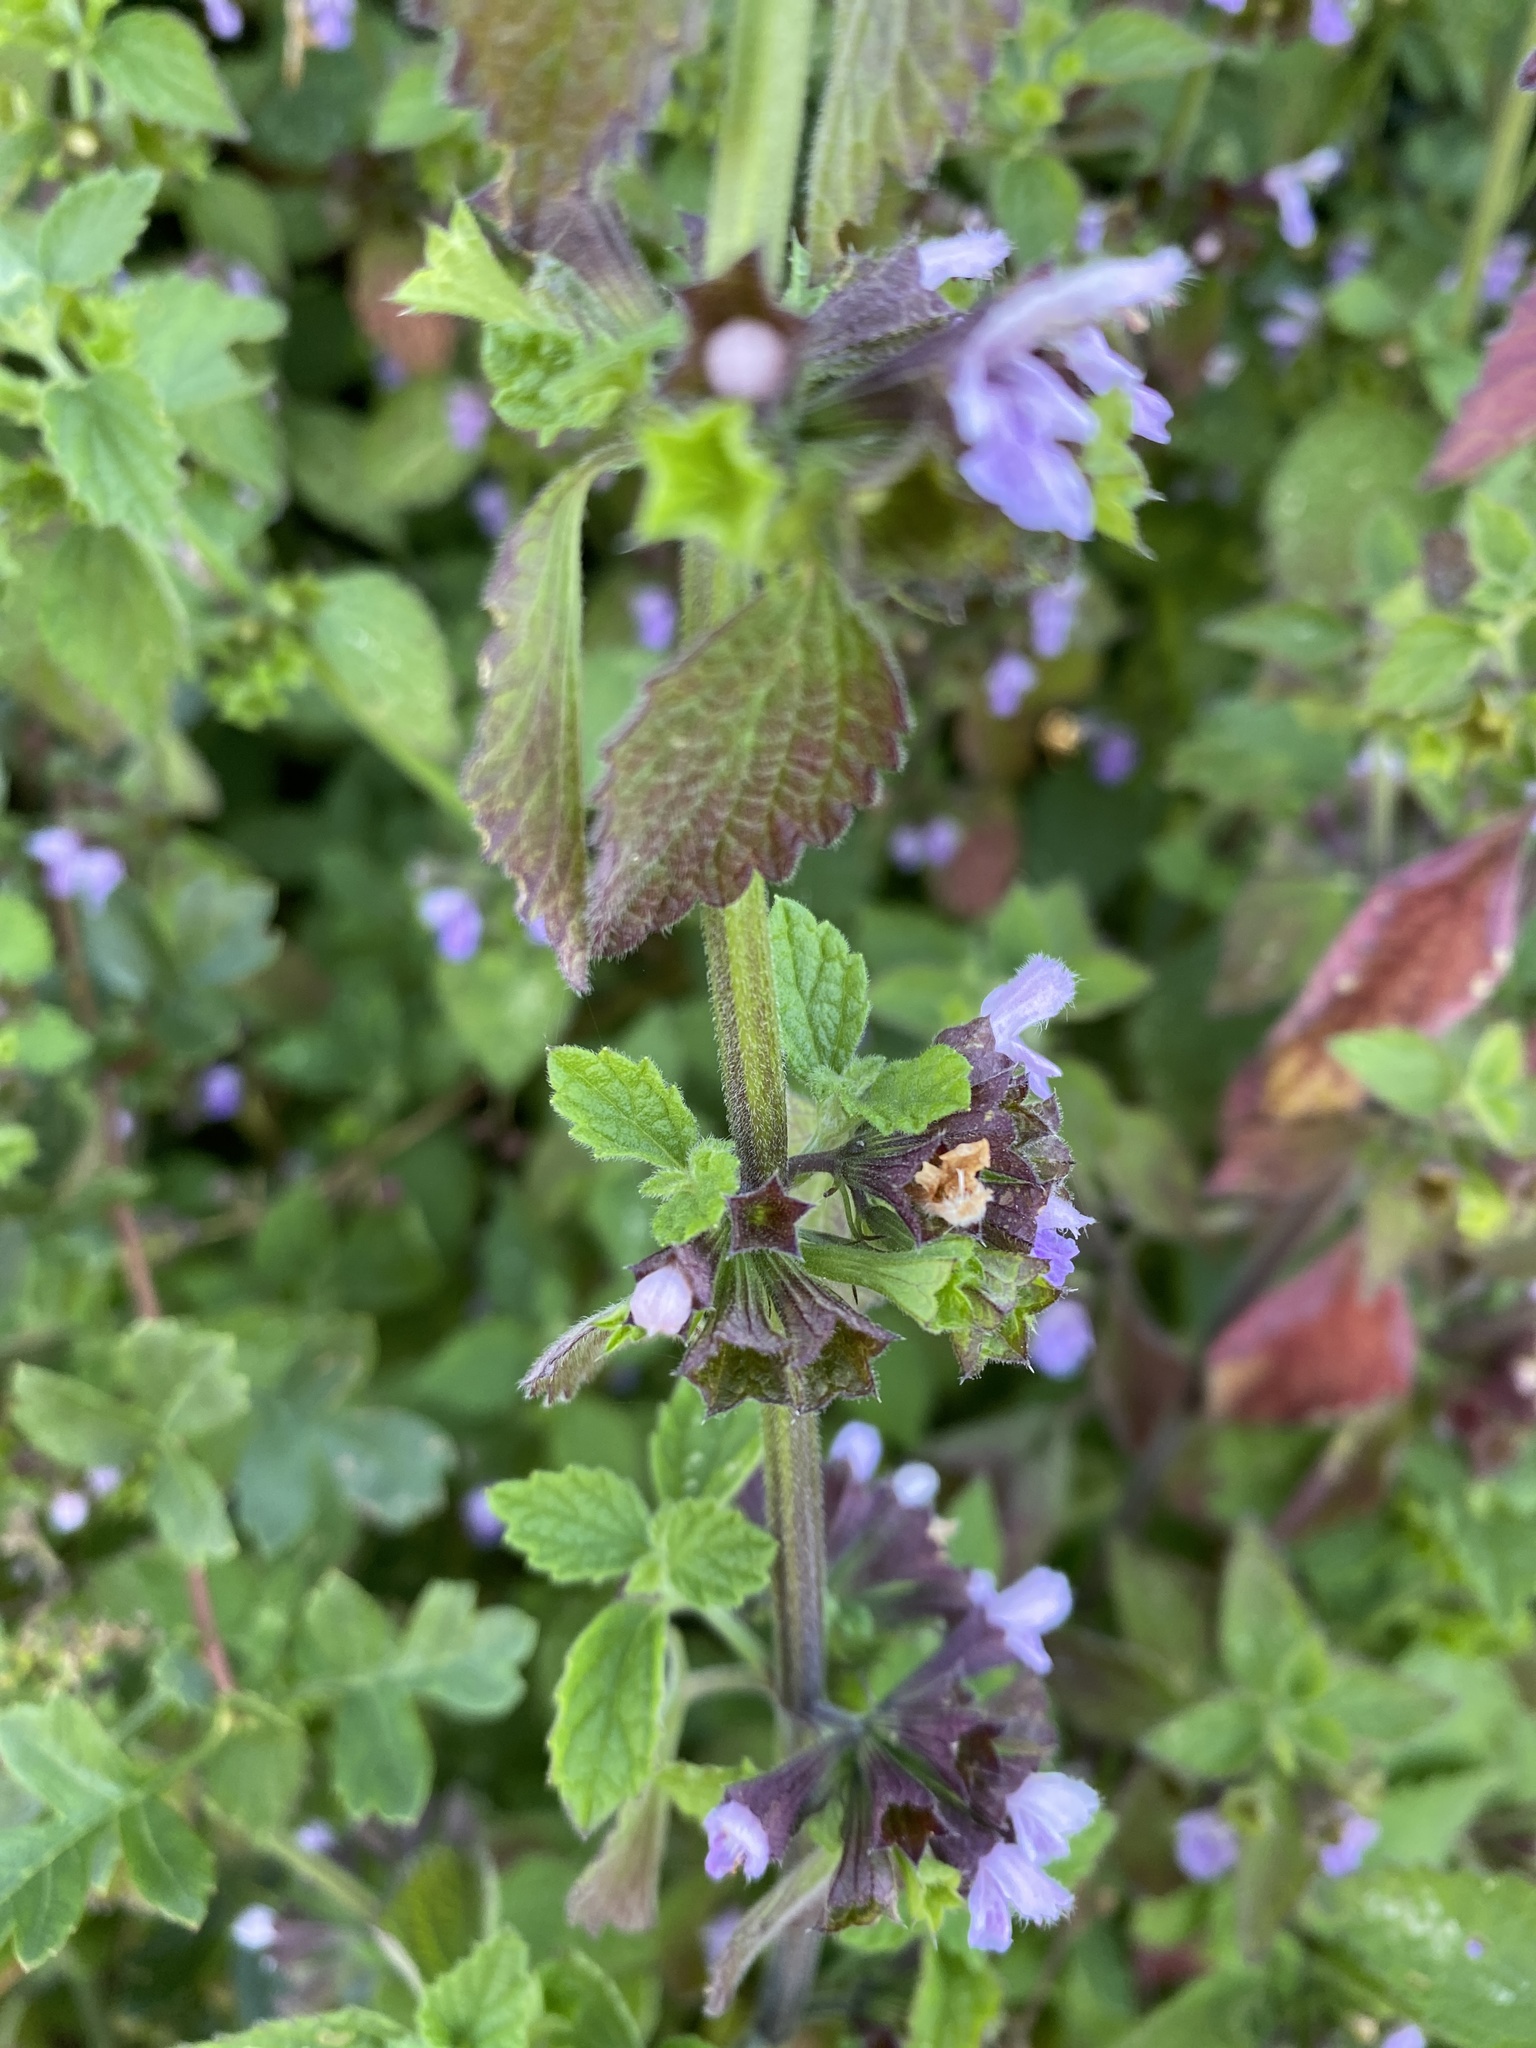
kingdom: Plantae
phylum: Tracheophyta
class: Magnoliopsida
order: Lamiales
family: Lamiaceae
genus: Ballota
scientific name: Ballota nigra
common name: Black horehound
